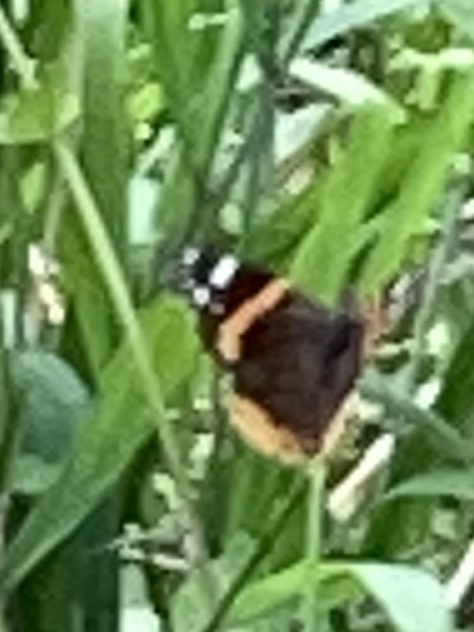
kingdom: Animalia
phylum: Arthropoda
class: Insecta
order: Lepidoptera
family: Nymphalidae
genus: Vanessa
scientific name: Vanessa atalanta
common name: Red admiral
